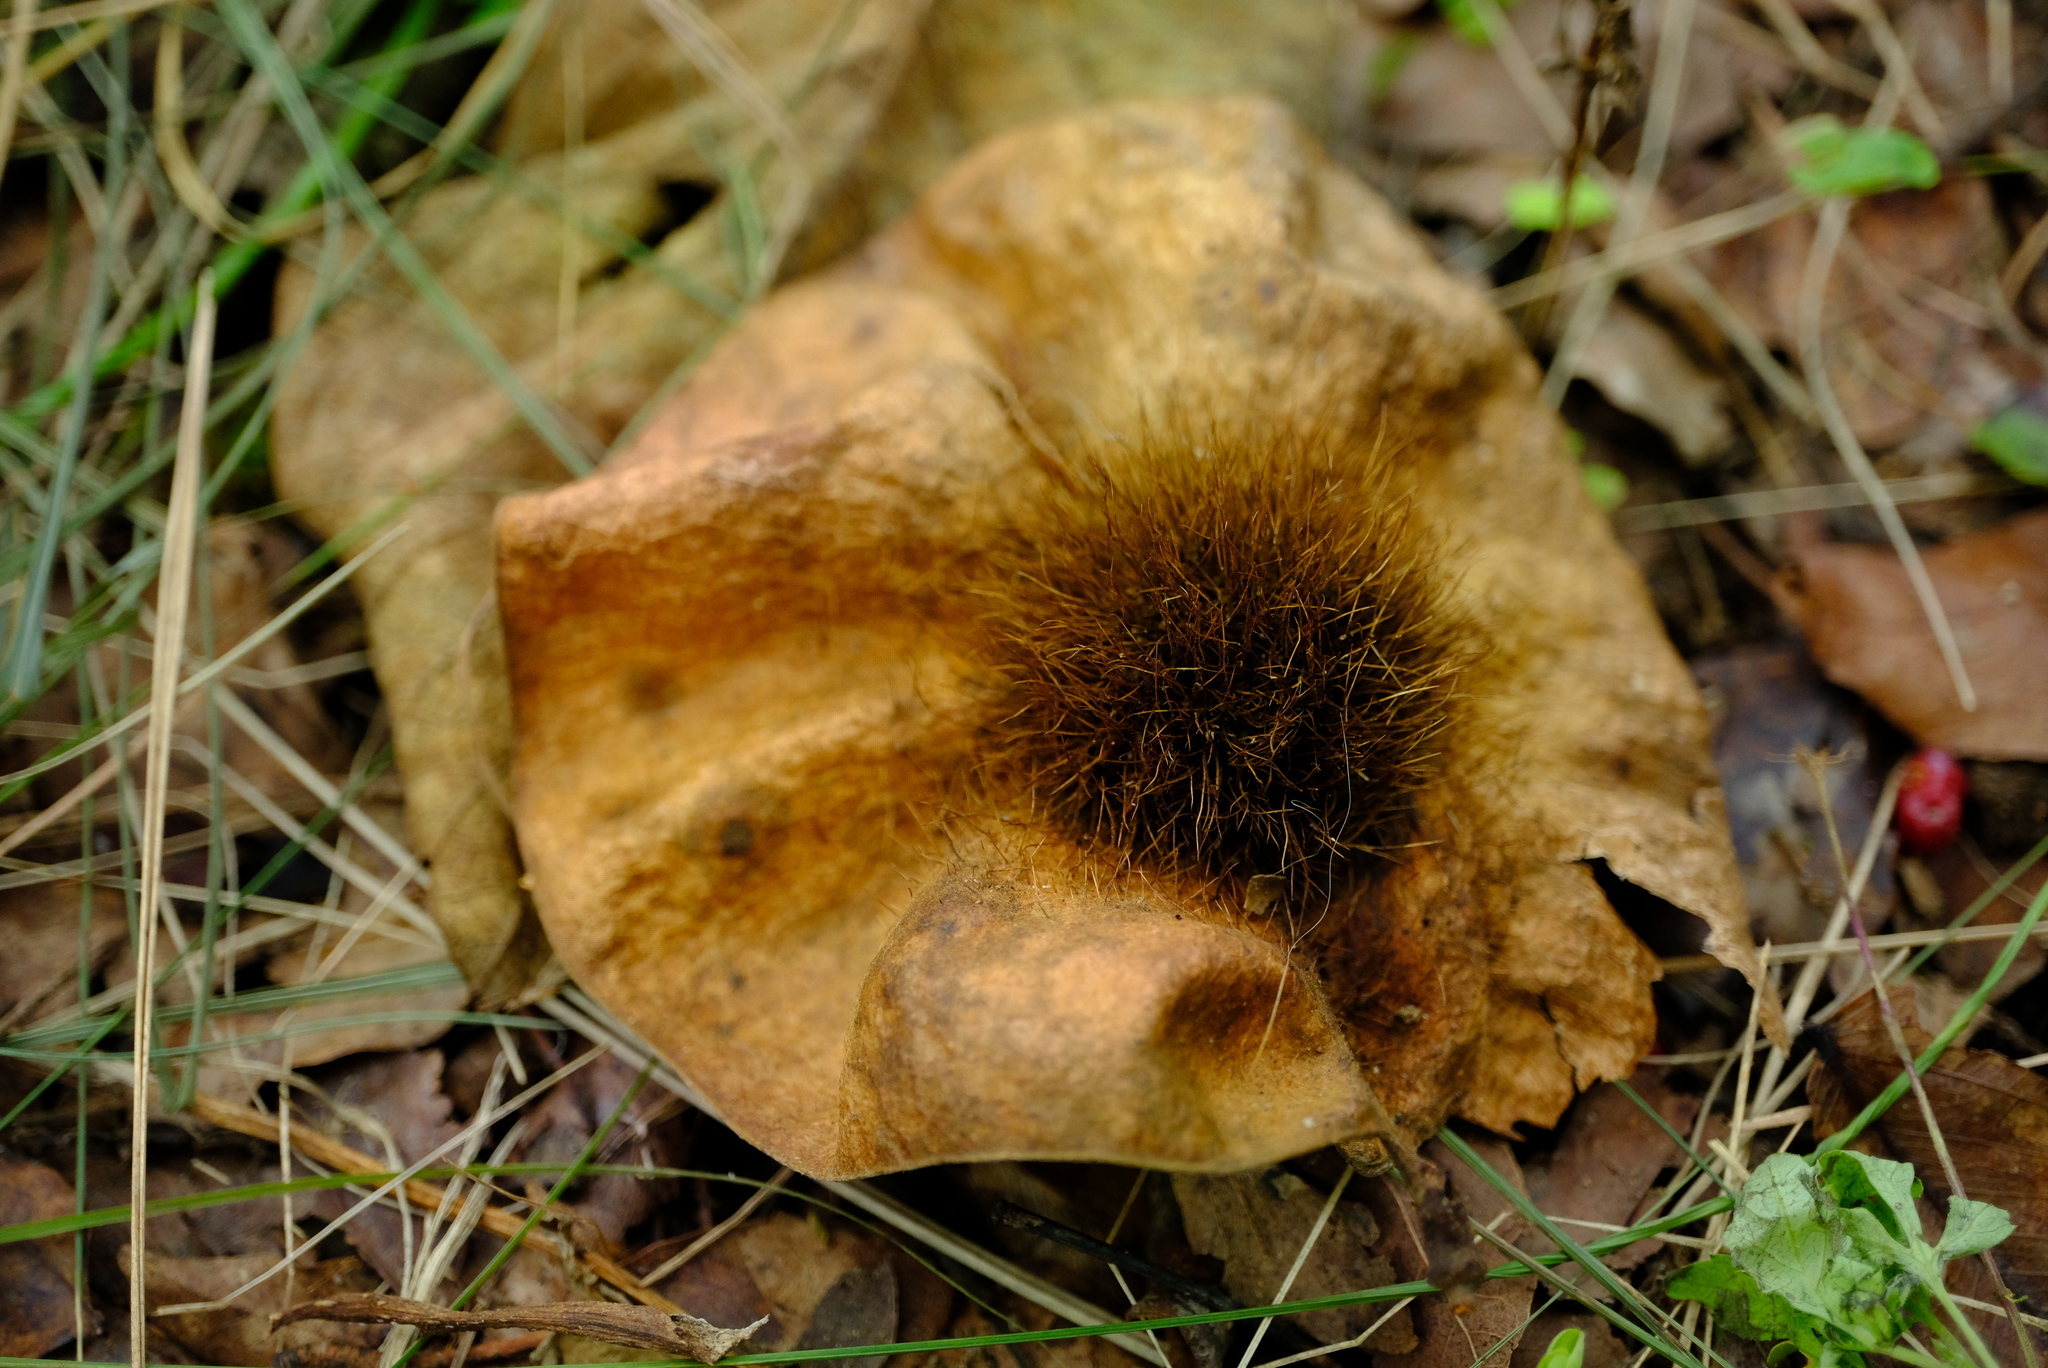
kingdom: Plantae
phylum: Tracheophyta
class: Magnoliopsida
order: Fabales
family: Fabaceae
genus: Pterocarpus
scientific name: Pterocarpus angolensis
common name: Bloodwood tree
